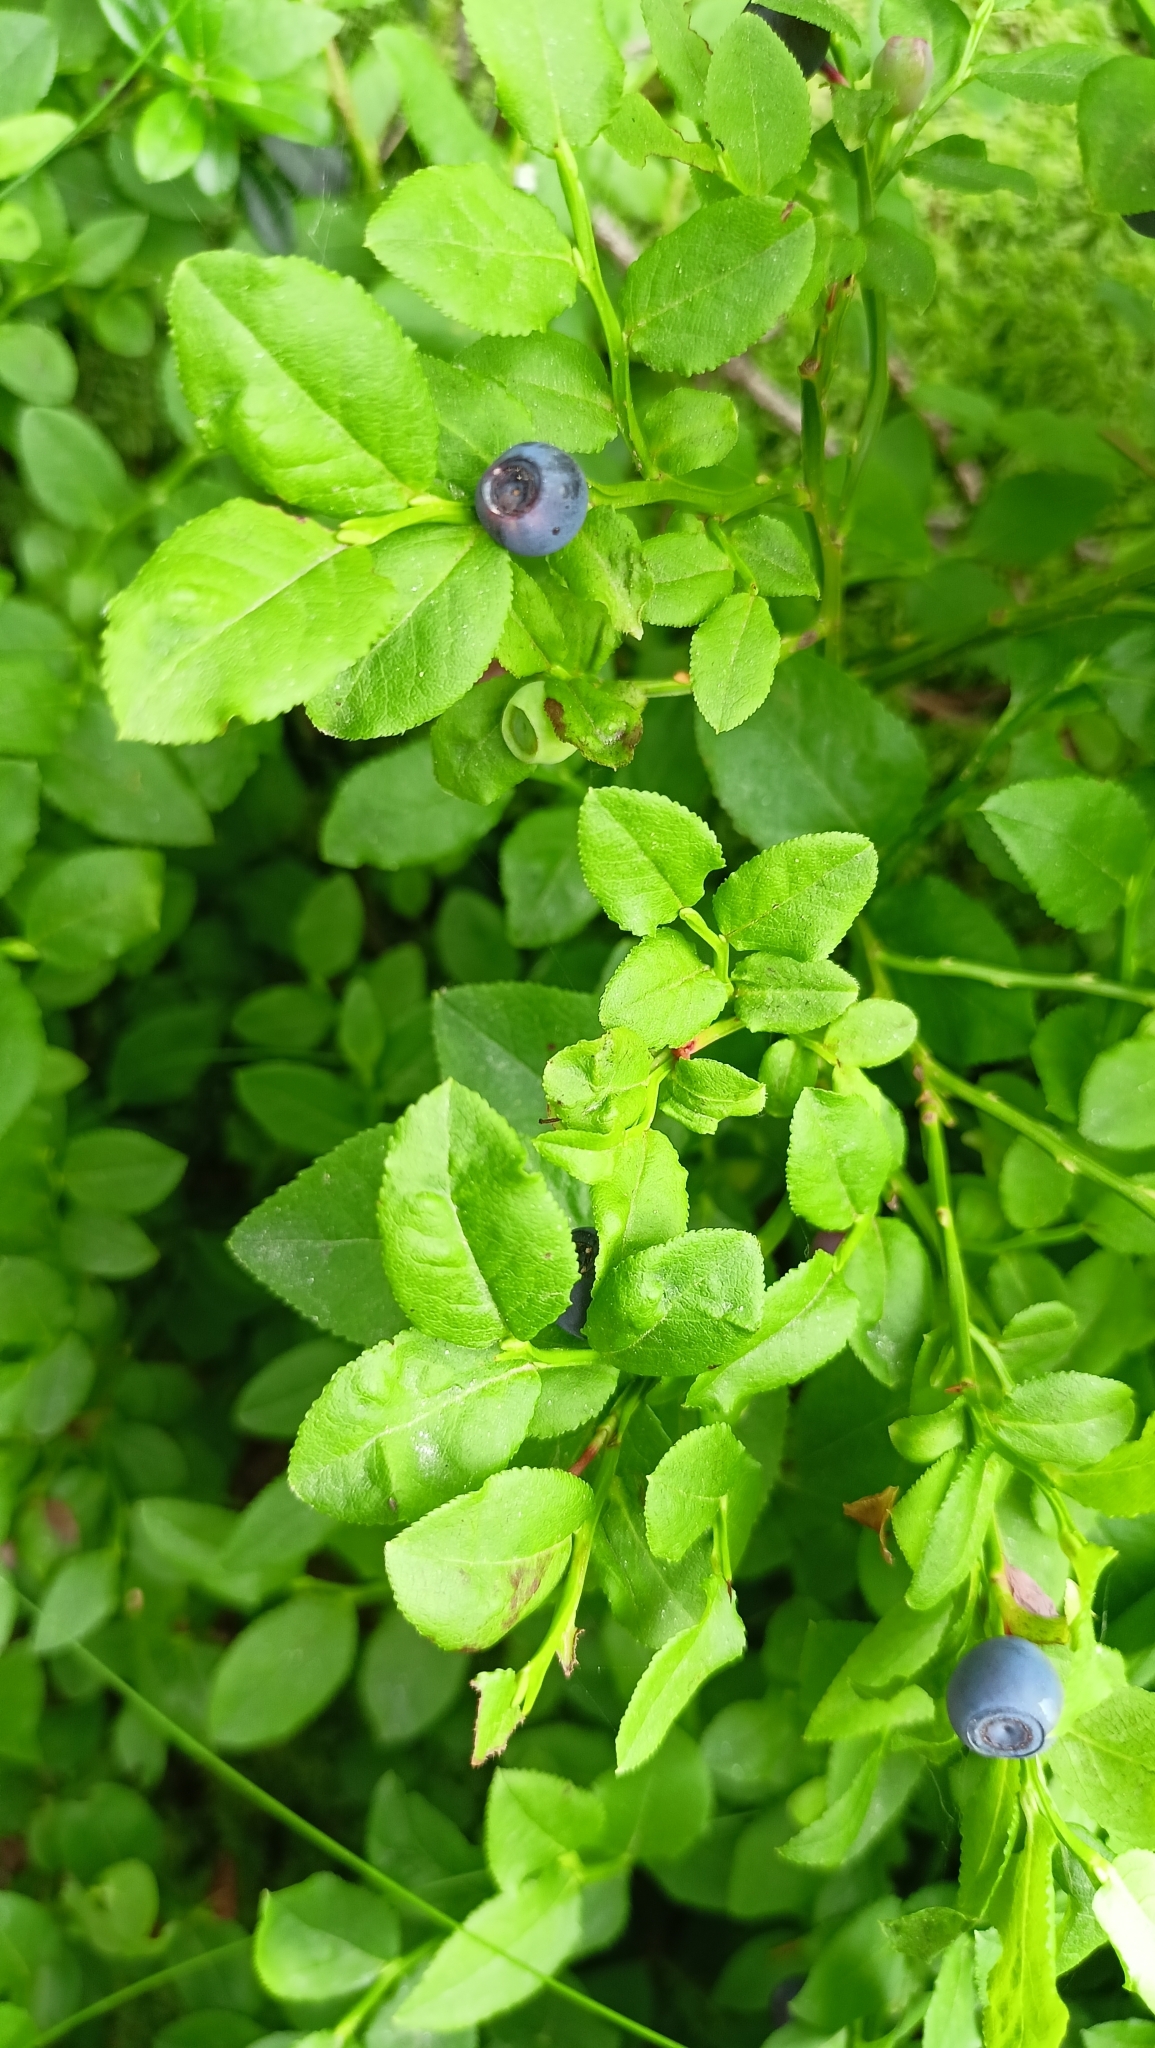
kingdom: Plantae
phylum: Tracheophyta
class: Magnoliopsida
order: Ericales
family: Ericaceae
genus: Vaccinium
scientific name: Vaccinium myrtillus
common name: Bilberry
